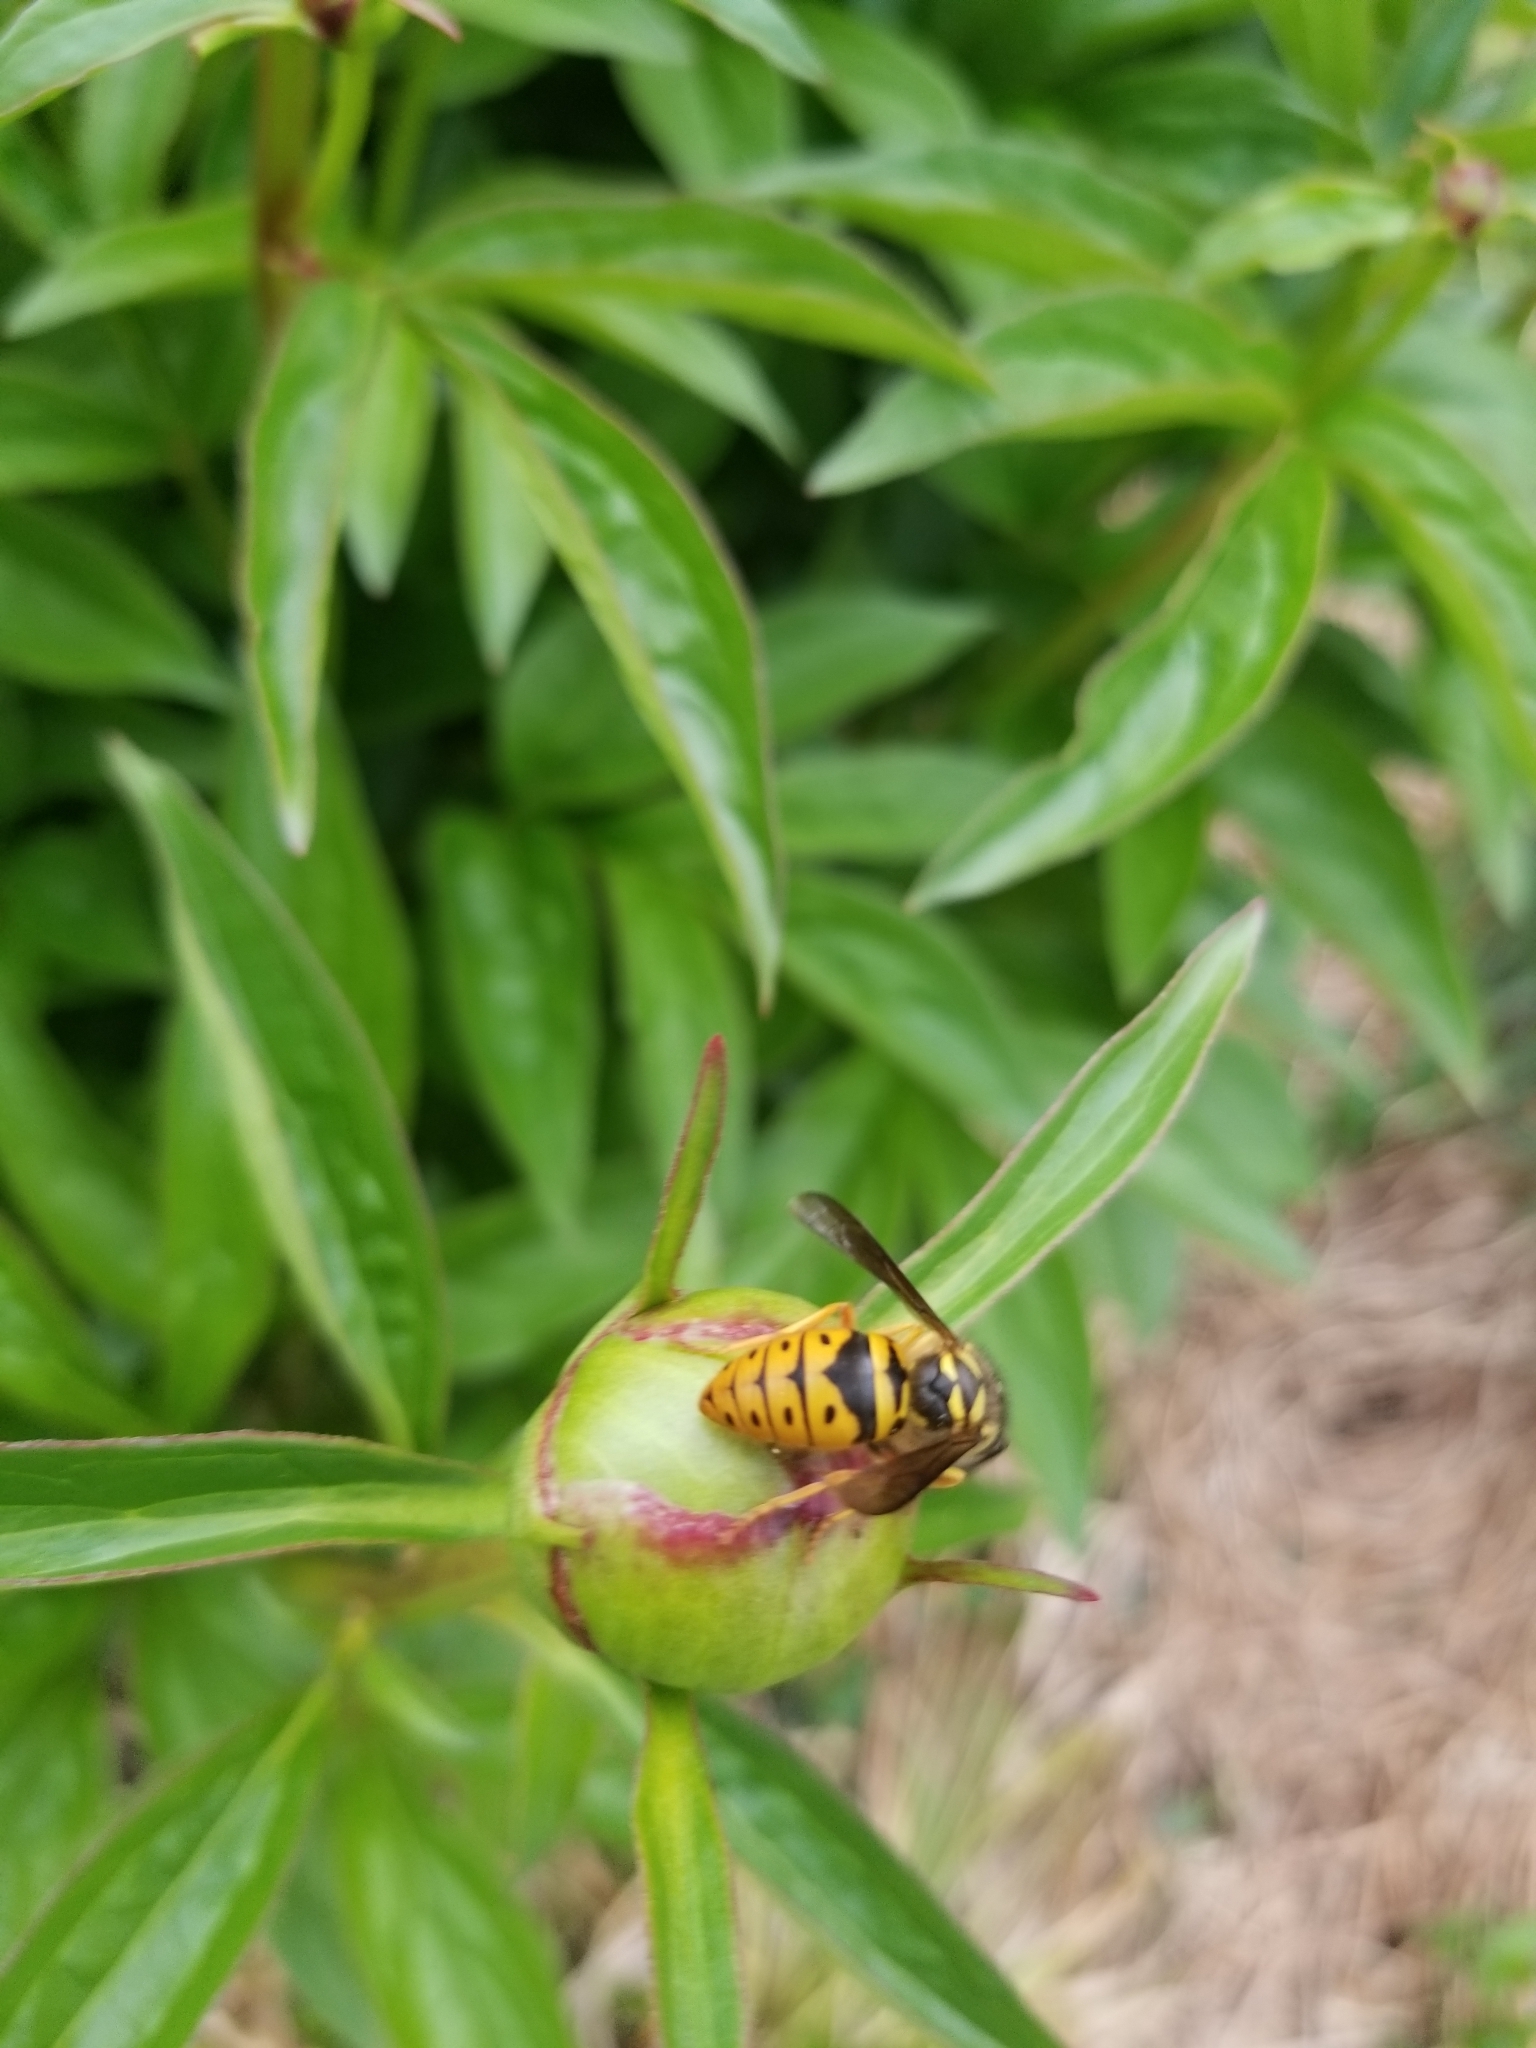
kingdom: Animalia
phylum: Arthropoda
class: Insecta
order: Hymenoptera
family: Vespidae
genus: Vespula
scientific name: Vespula maculifrons
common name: Eastern yellowjacket
